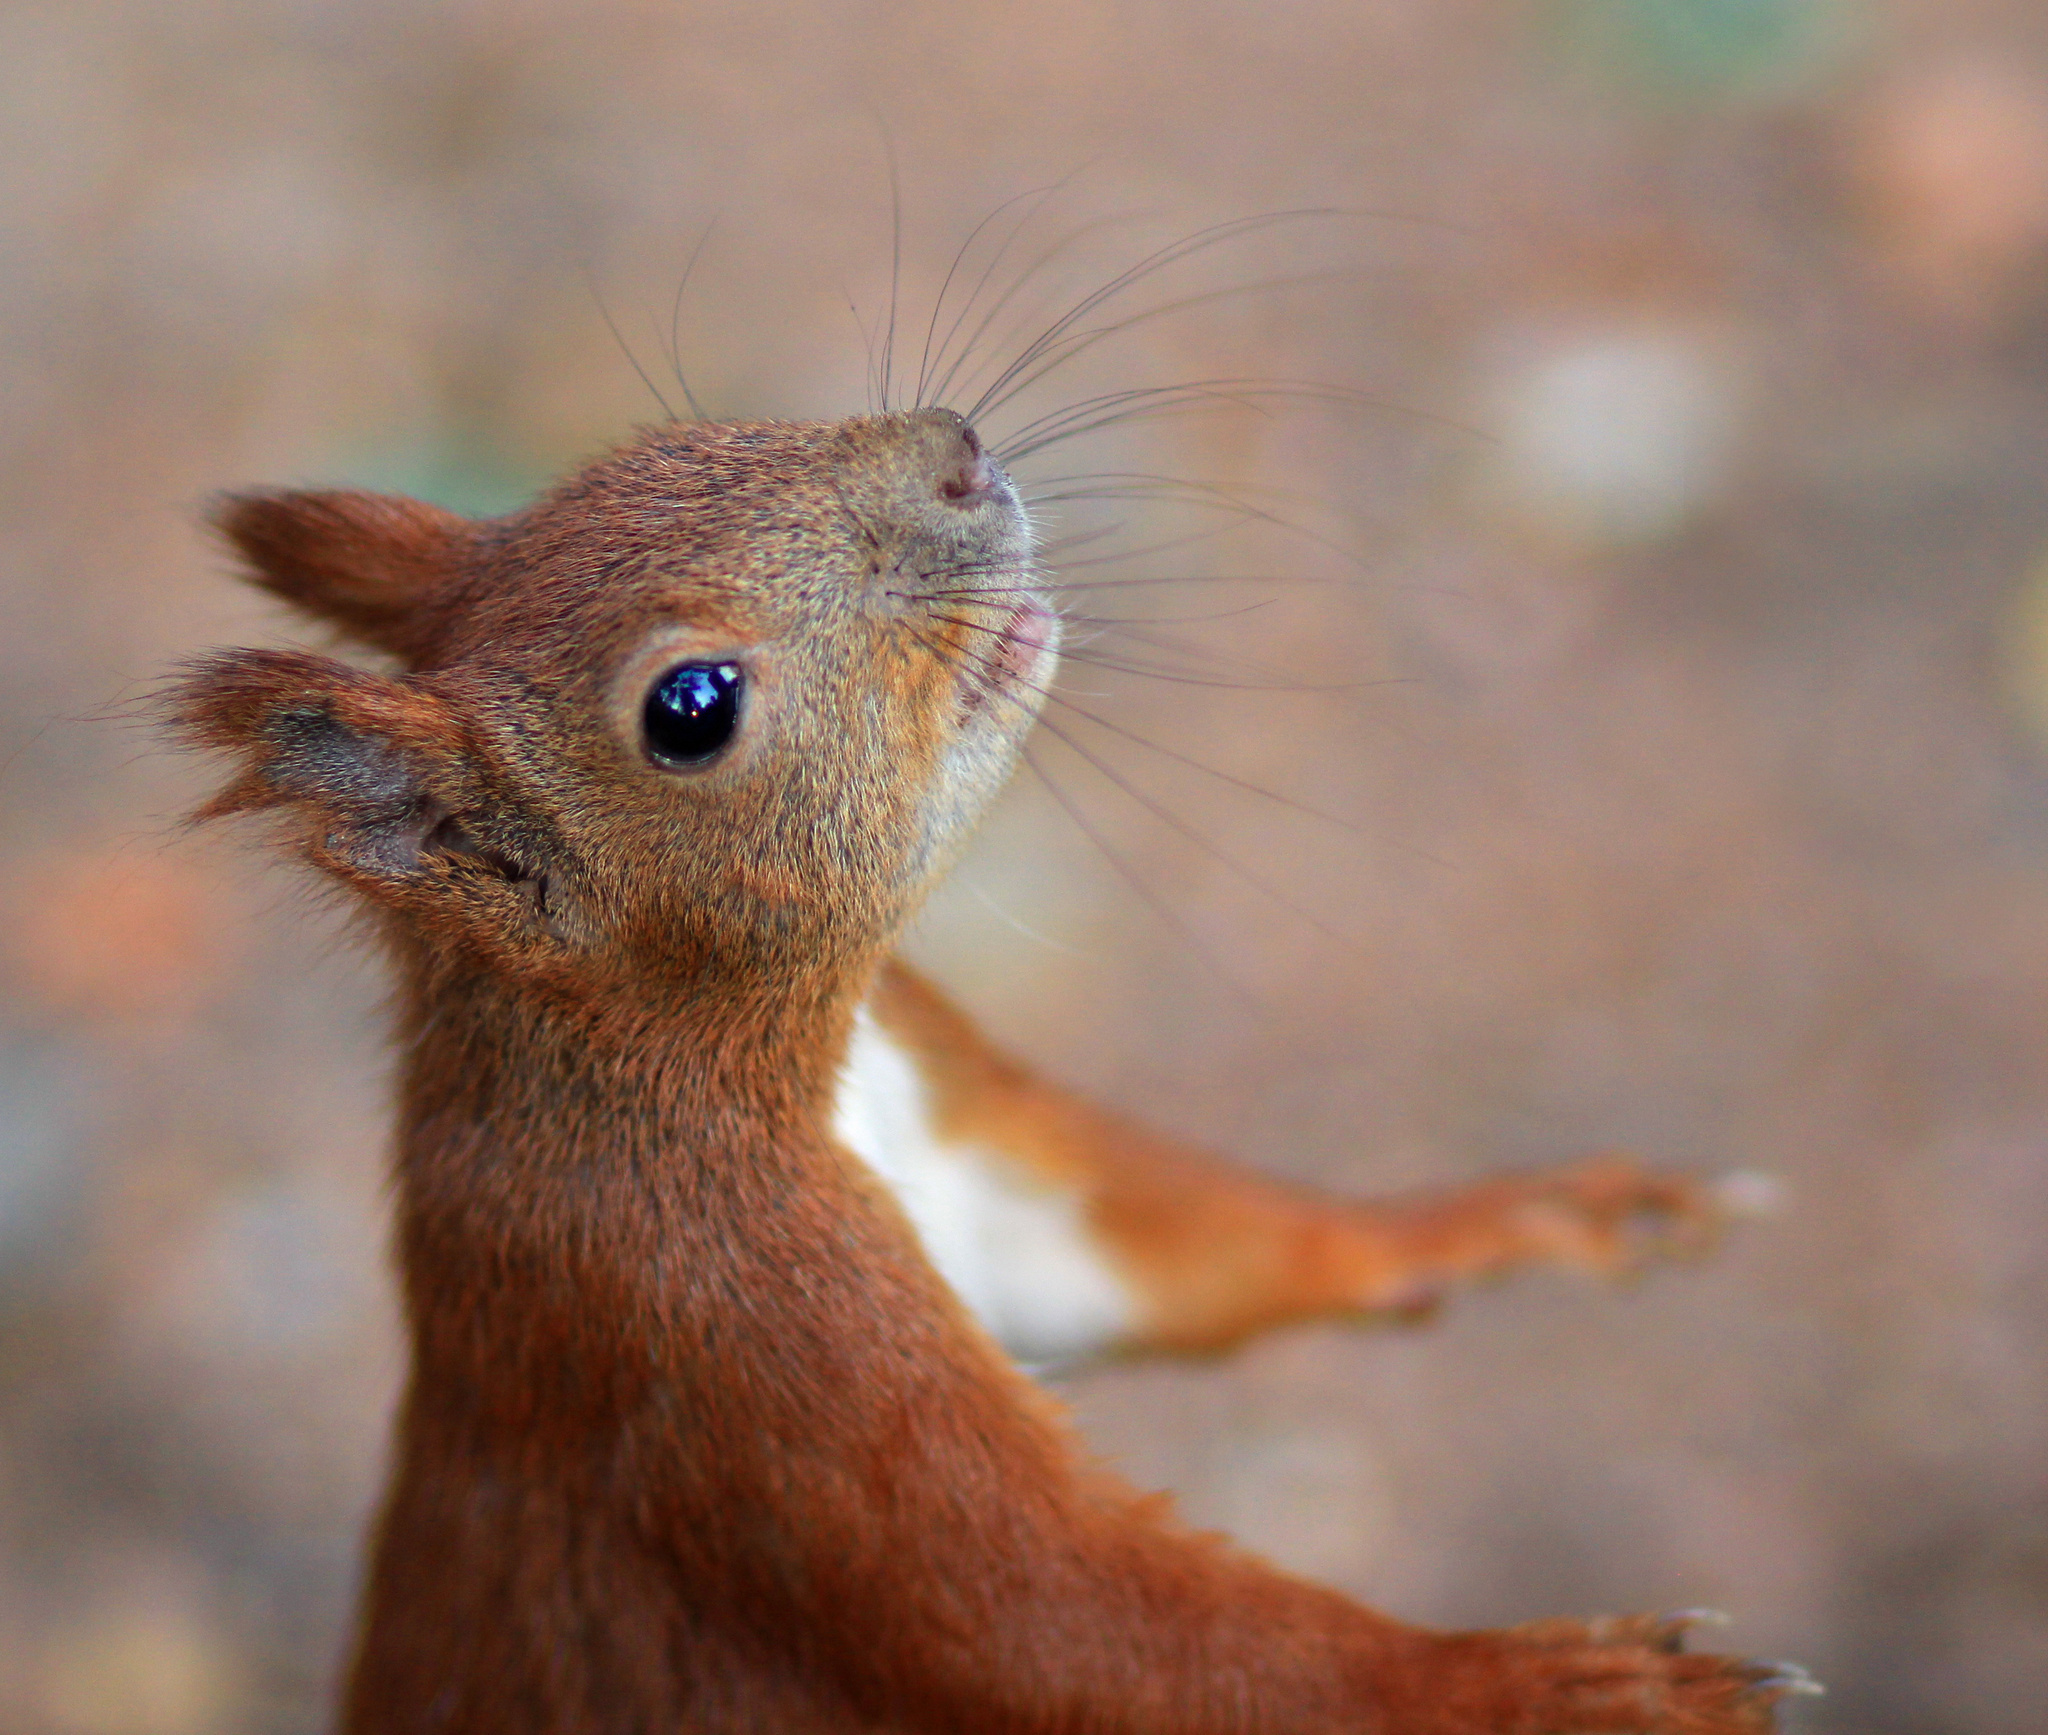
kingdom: Animalia
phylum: Chordata
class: Mammalia
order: Rodentia
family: Sciuridae
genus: Sciurus
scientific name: Sciurus vulgaris
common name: Eurasian red squirrel
